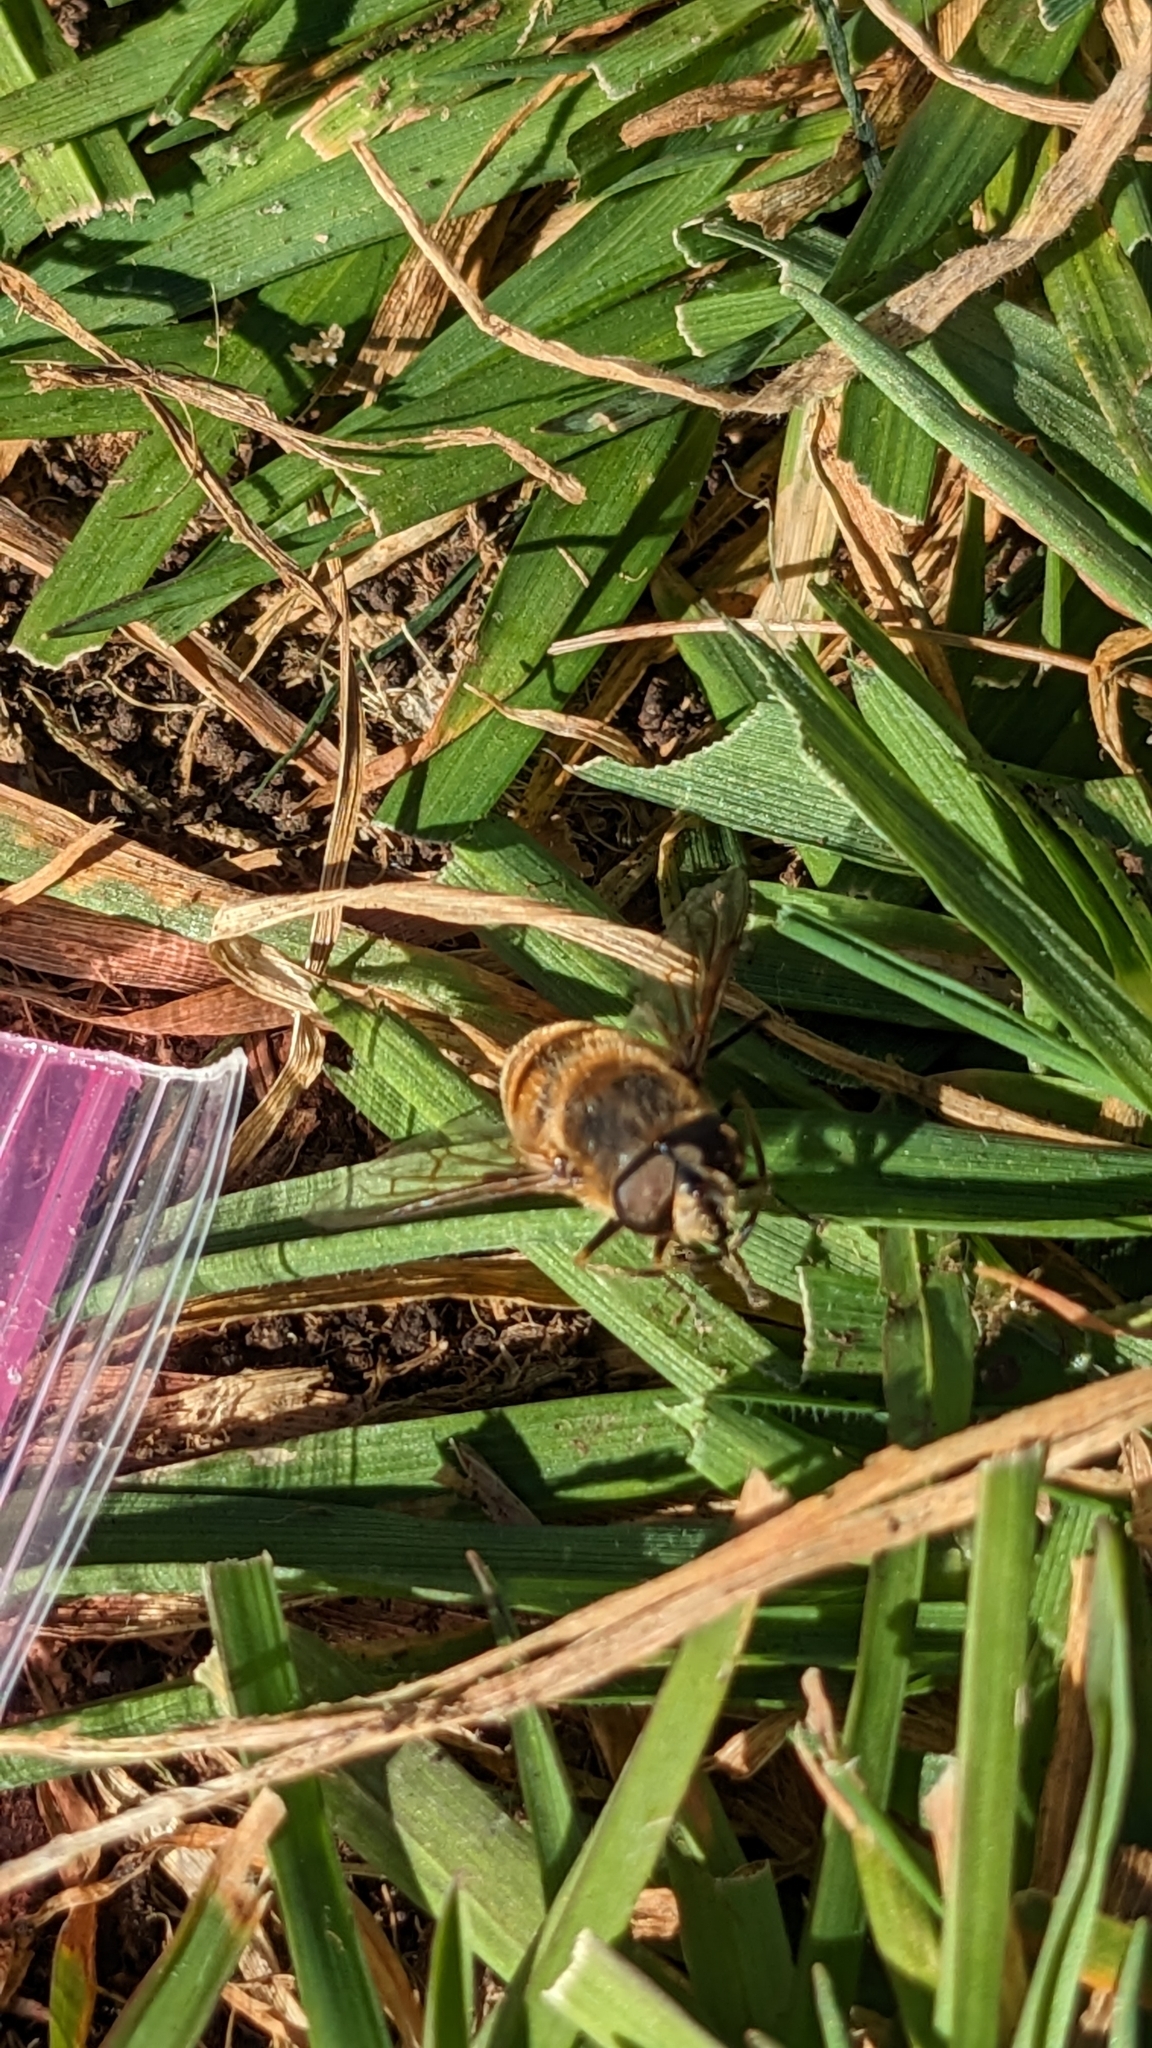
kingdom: Animalia
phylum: Arthropoda
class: Insecta
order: Diptera
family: Syrphidae
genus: Eristalis
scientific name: Eristalis tenax
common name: Drone fly
